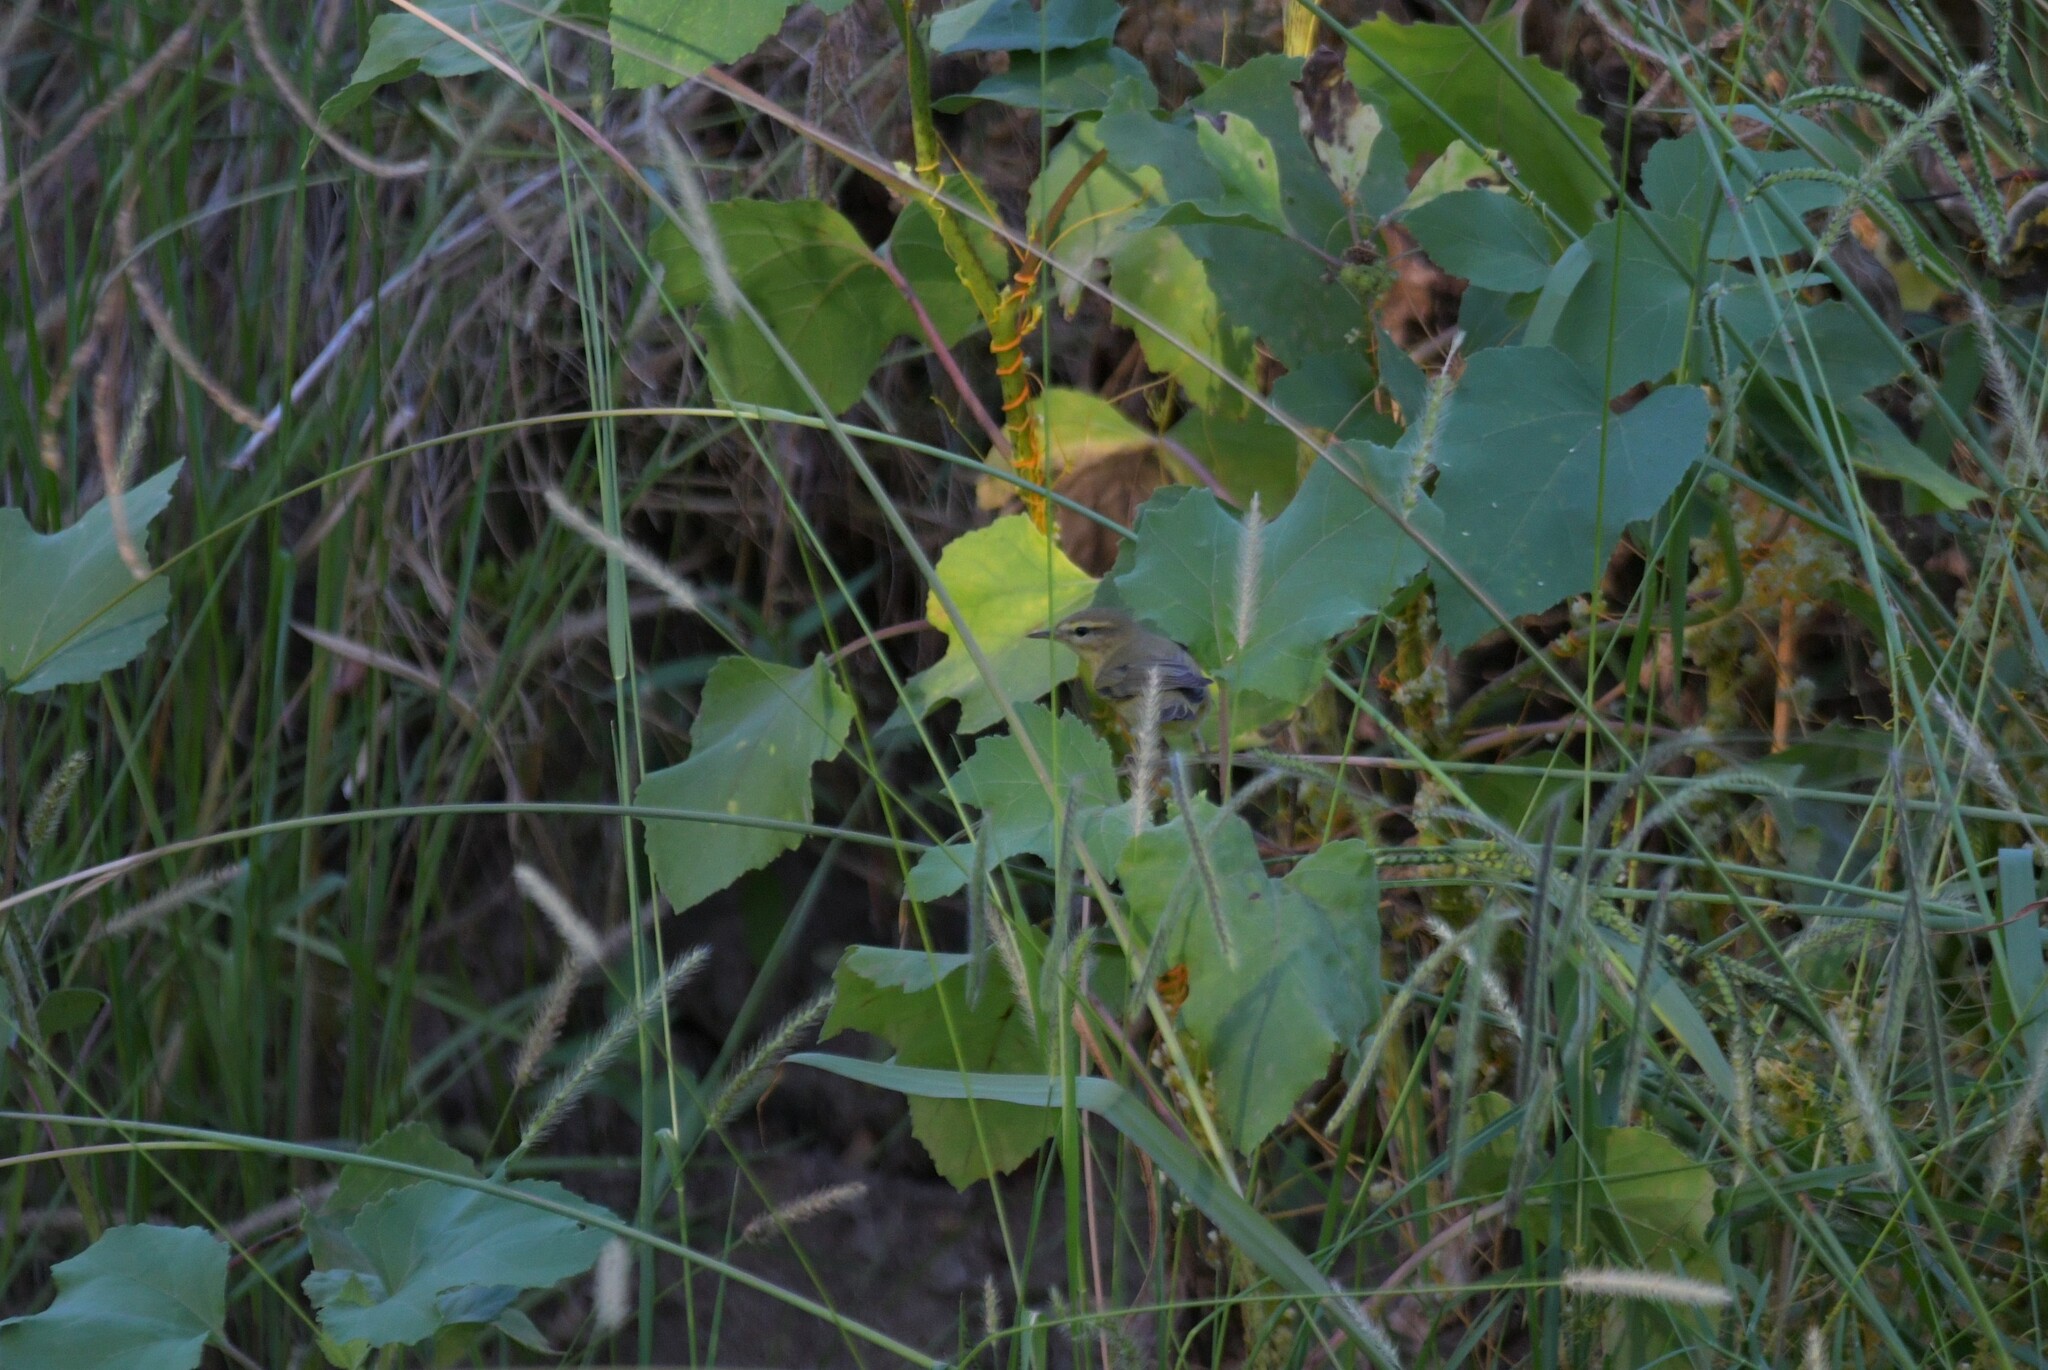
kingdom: Animalia
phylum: Chordata
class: Aves
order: Passeriformes
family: Phylloscopidae
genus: Phylloscopus
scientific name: Phylloscopus trochilus
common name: Willow warbler
